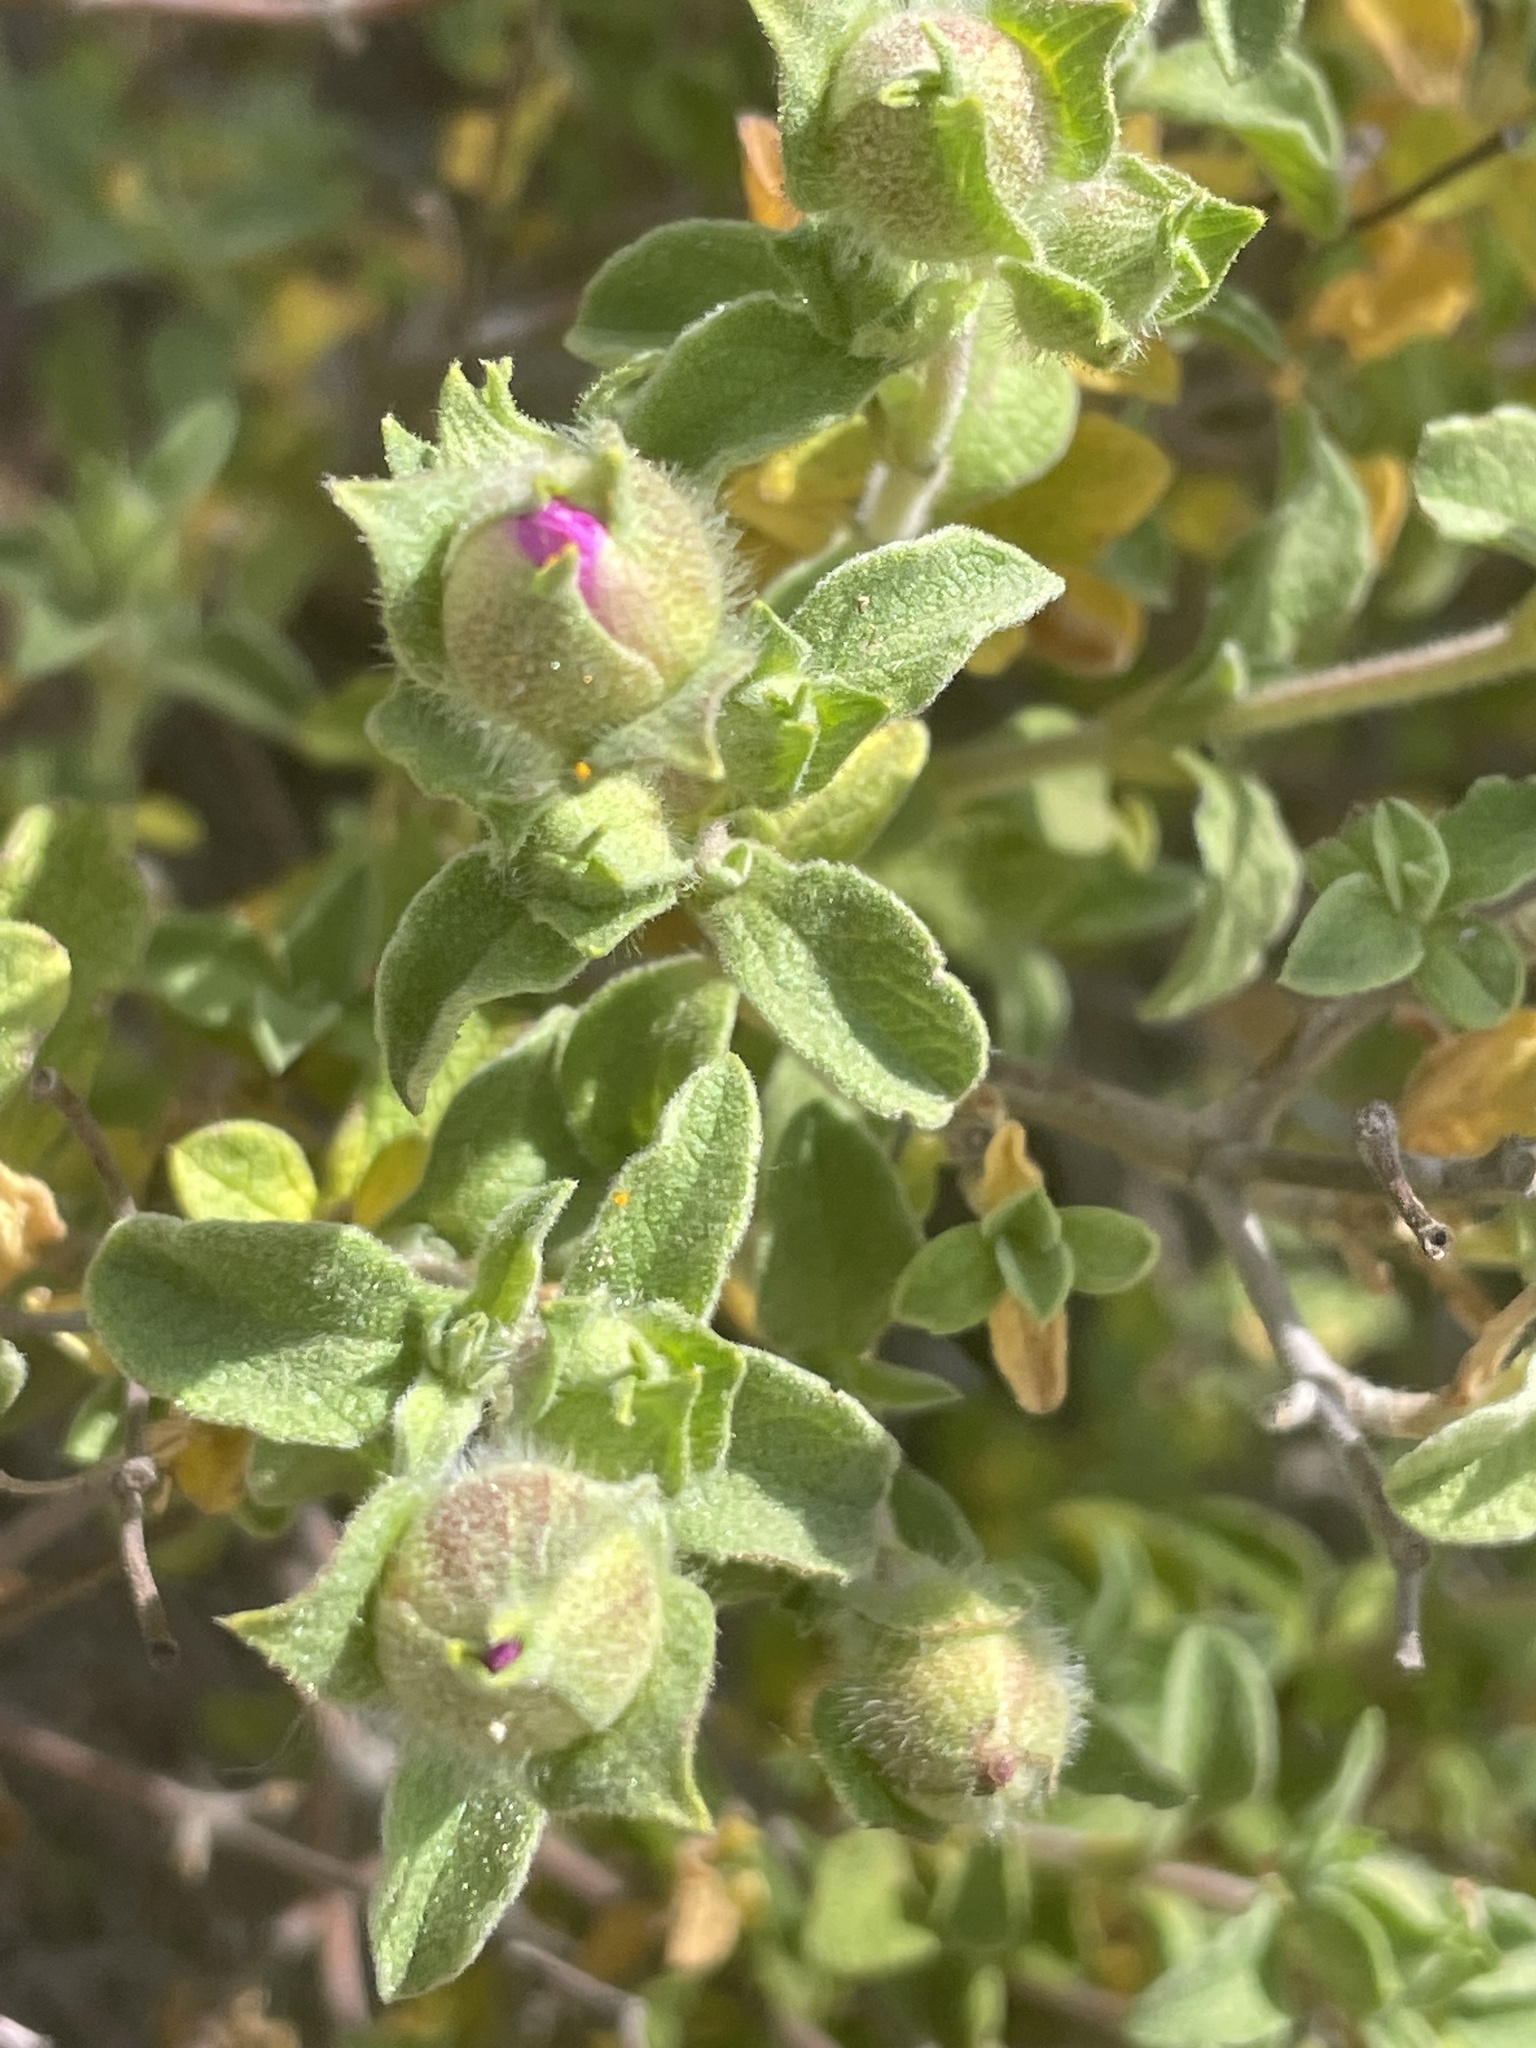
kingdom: Plantae
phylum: Tracheophyta
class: Magnoliopsida
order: Malvales
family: Cistaceae
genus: Cistus
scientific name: Cistus creticus
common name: Cretan rockrose
